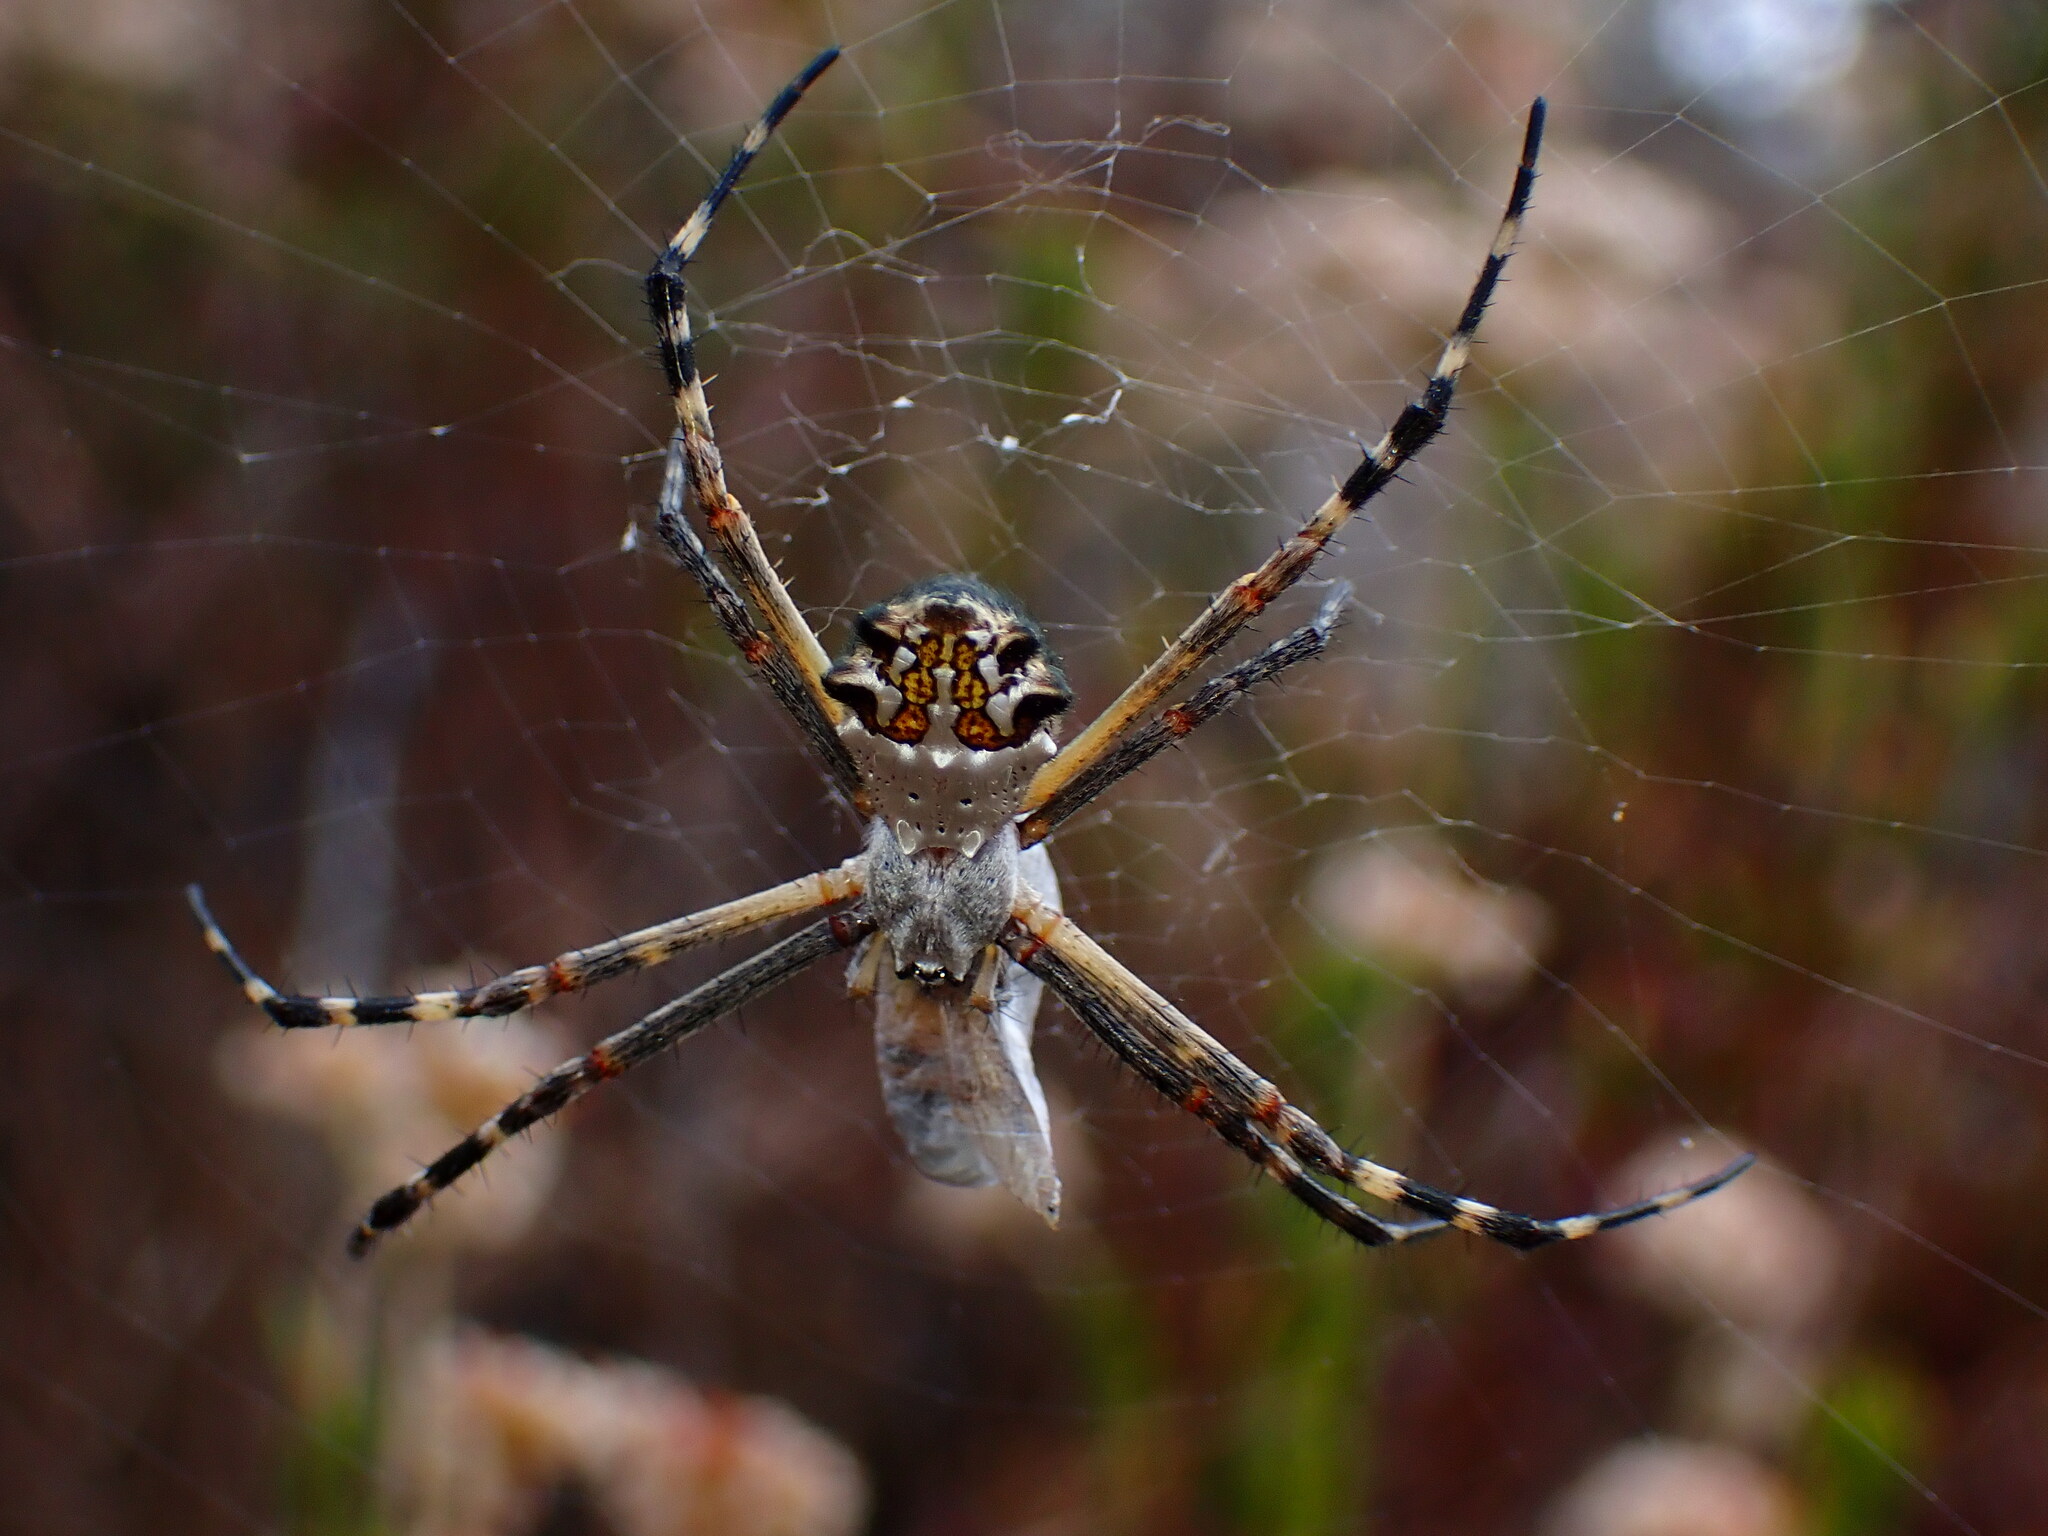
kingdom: Animalia
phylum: Arthropoda
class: Arachnida
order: Araneae
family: Araneidae
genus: Argiope
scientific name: Argiope argentata
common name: Orb weavers
